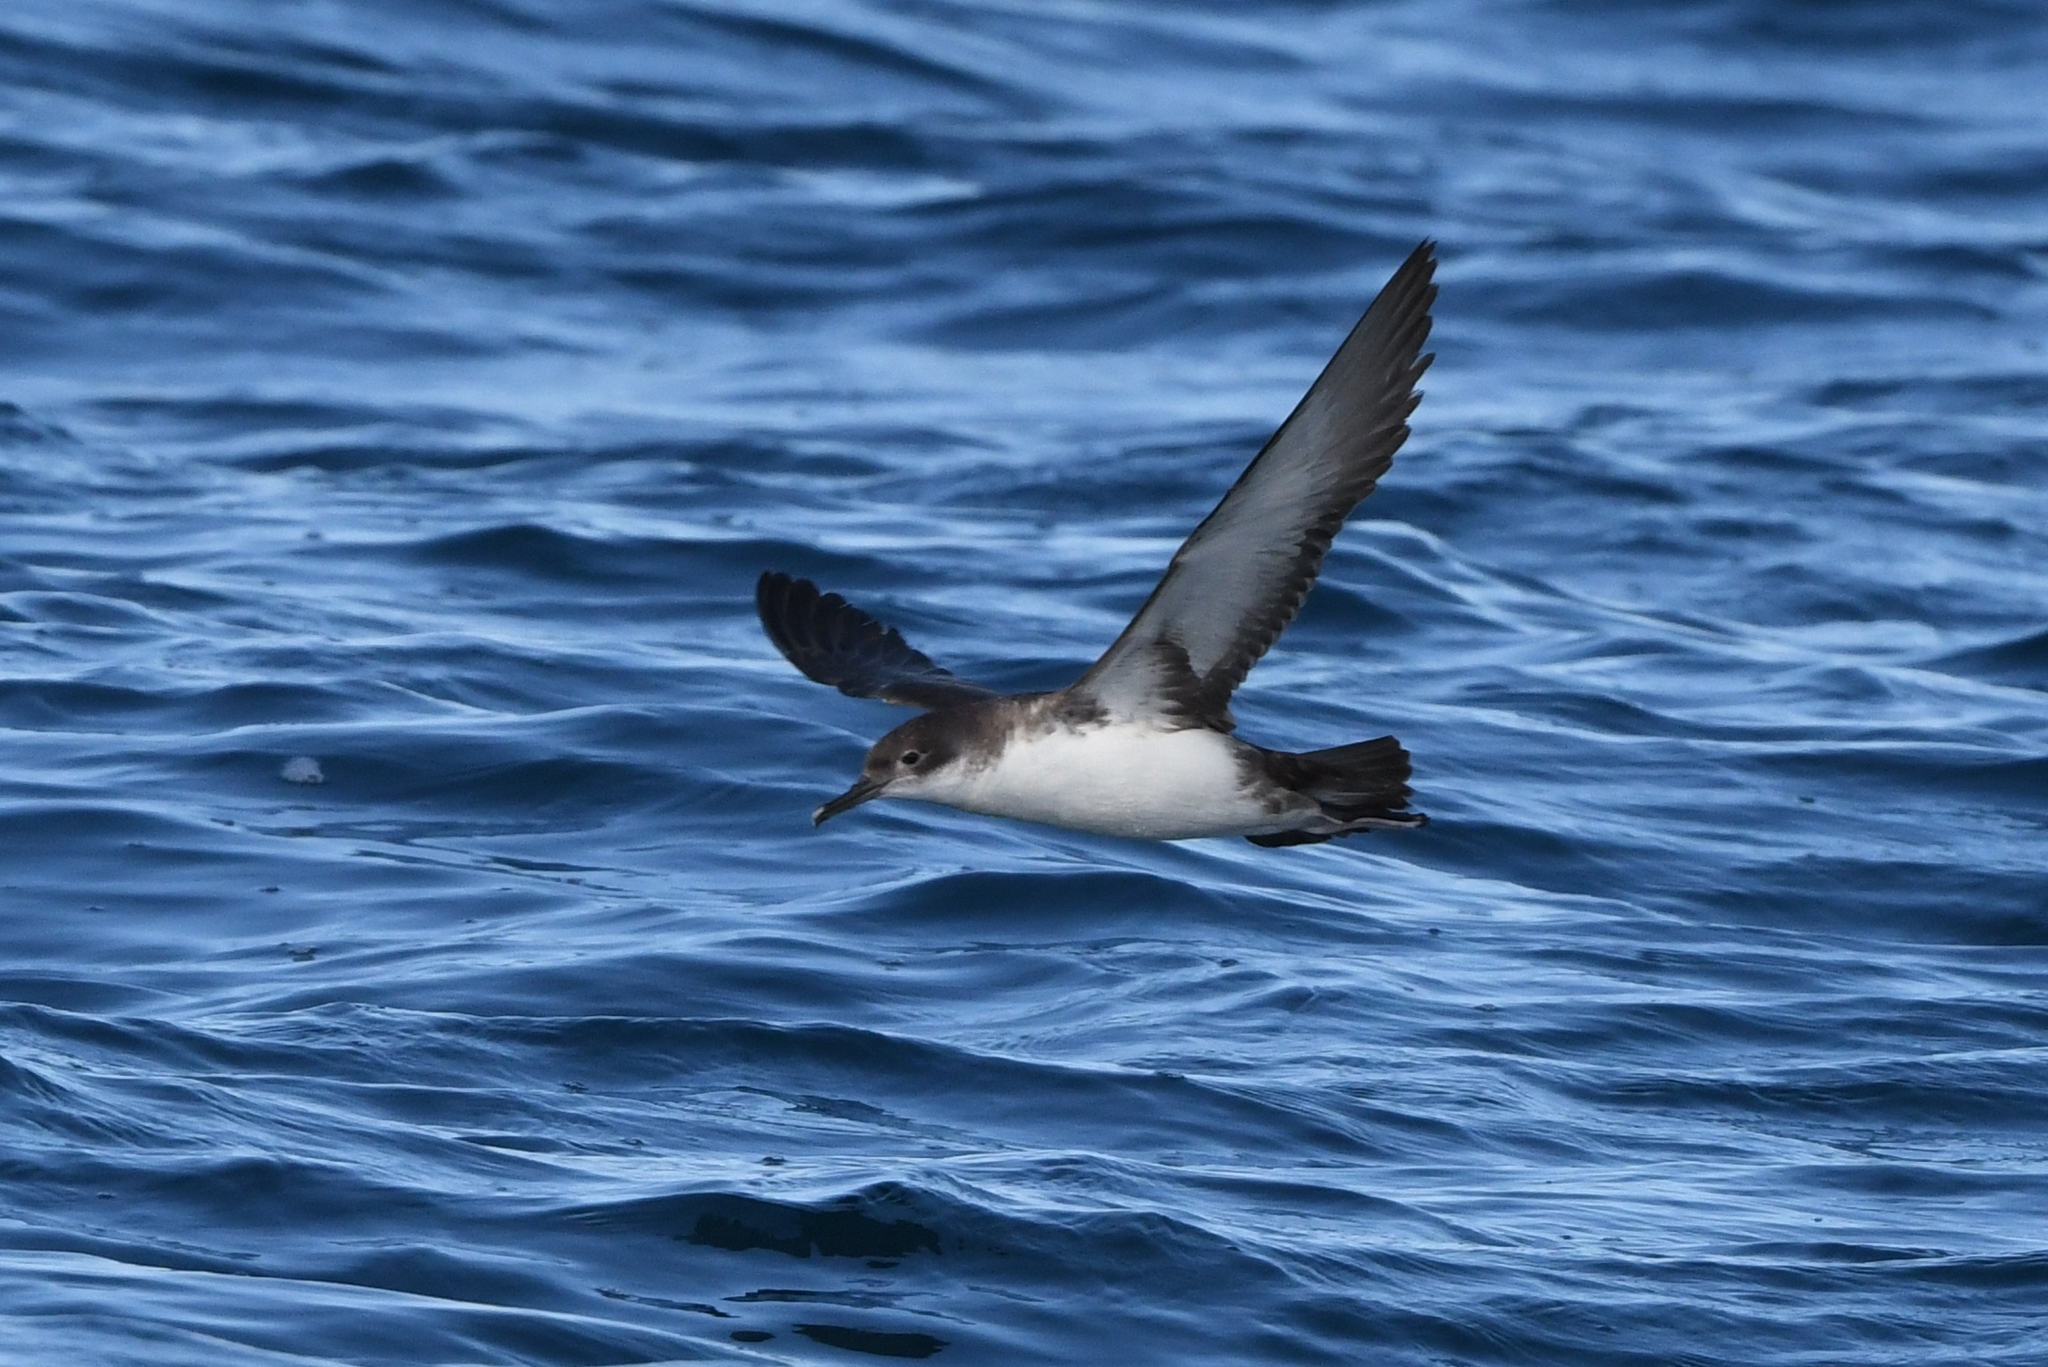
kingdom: Animalia
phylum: Chordata
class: Aves
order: Procellariiformes
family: Procellariidae
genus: Puffinus
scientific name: Puffinus yelkouan
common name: Yelkouan shearwater
